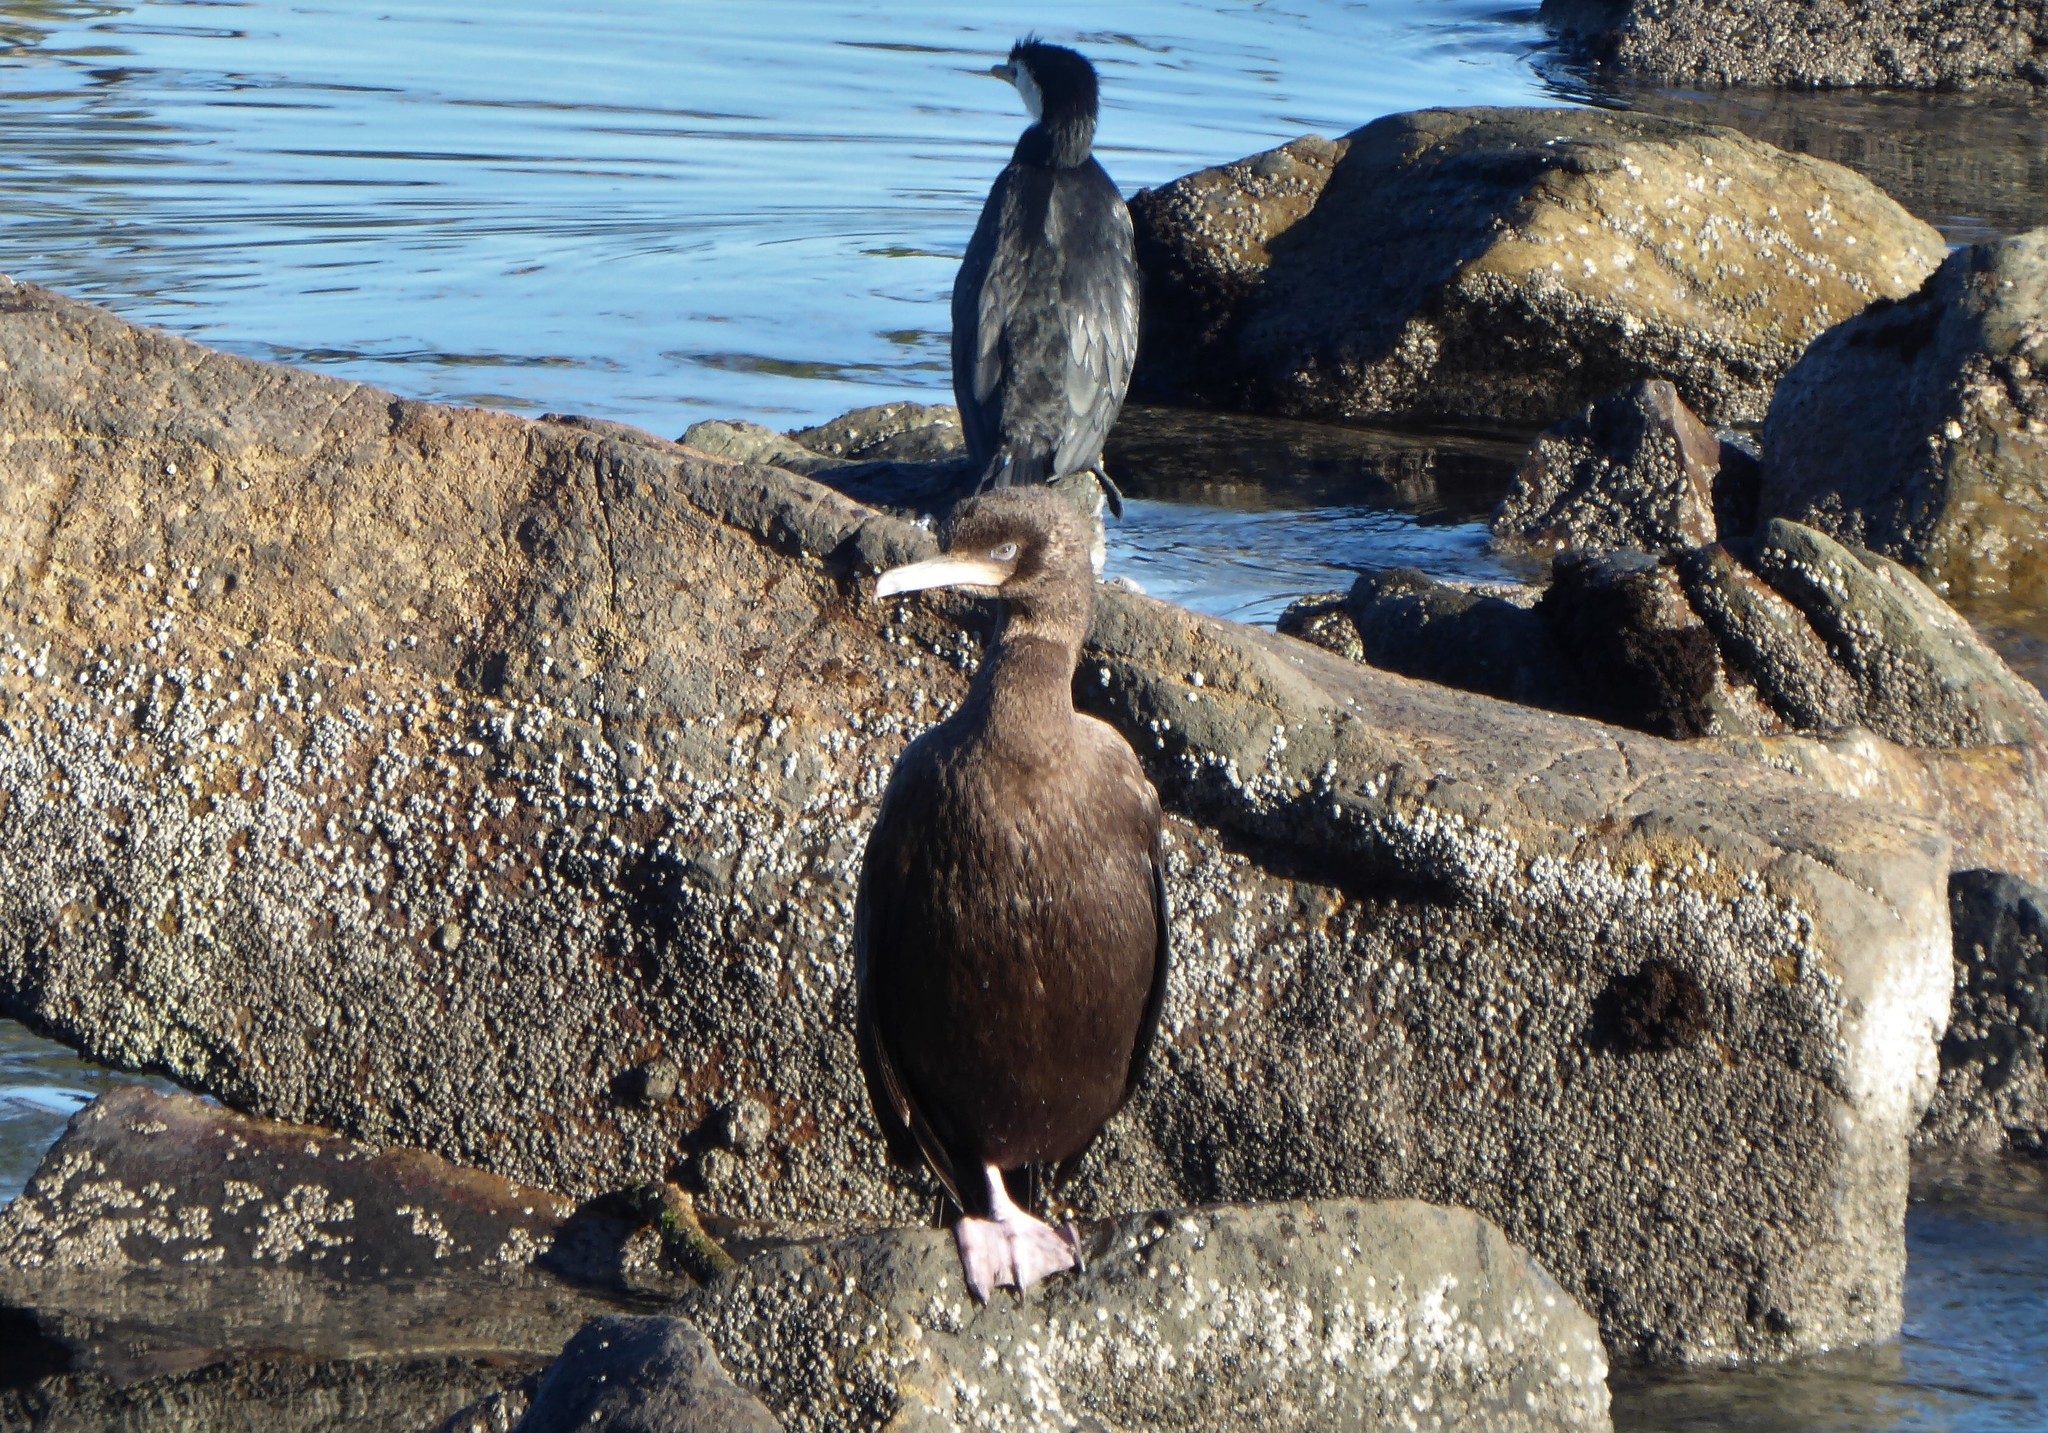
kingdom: Animalia
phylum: Chordata
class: Aves
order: Suliformes
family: Phalacrocoracidae
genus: Leucocarbo
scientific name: Leucocarbo chalconotus
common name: Stewart shag
